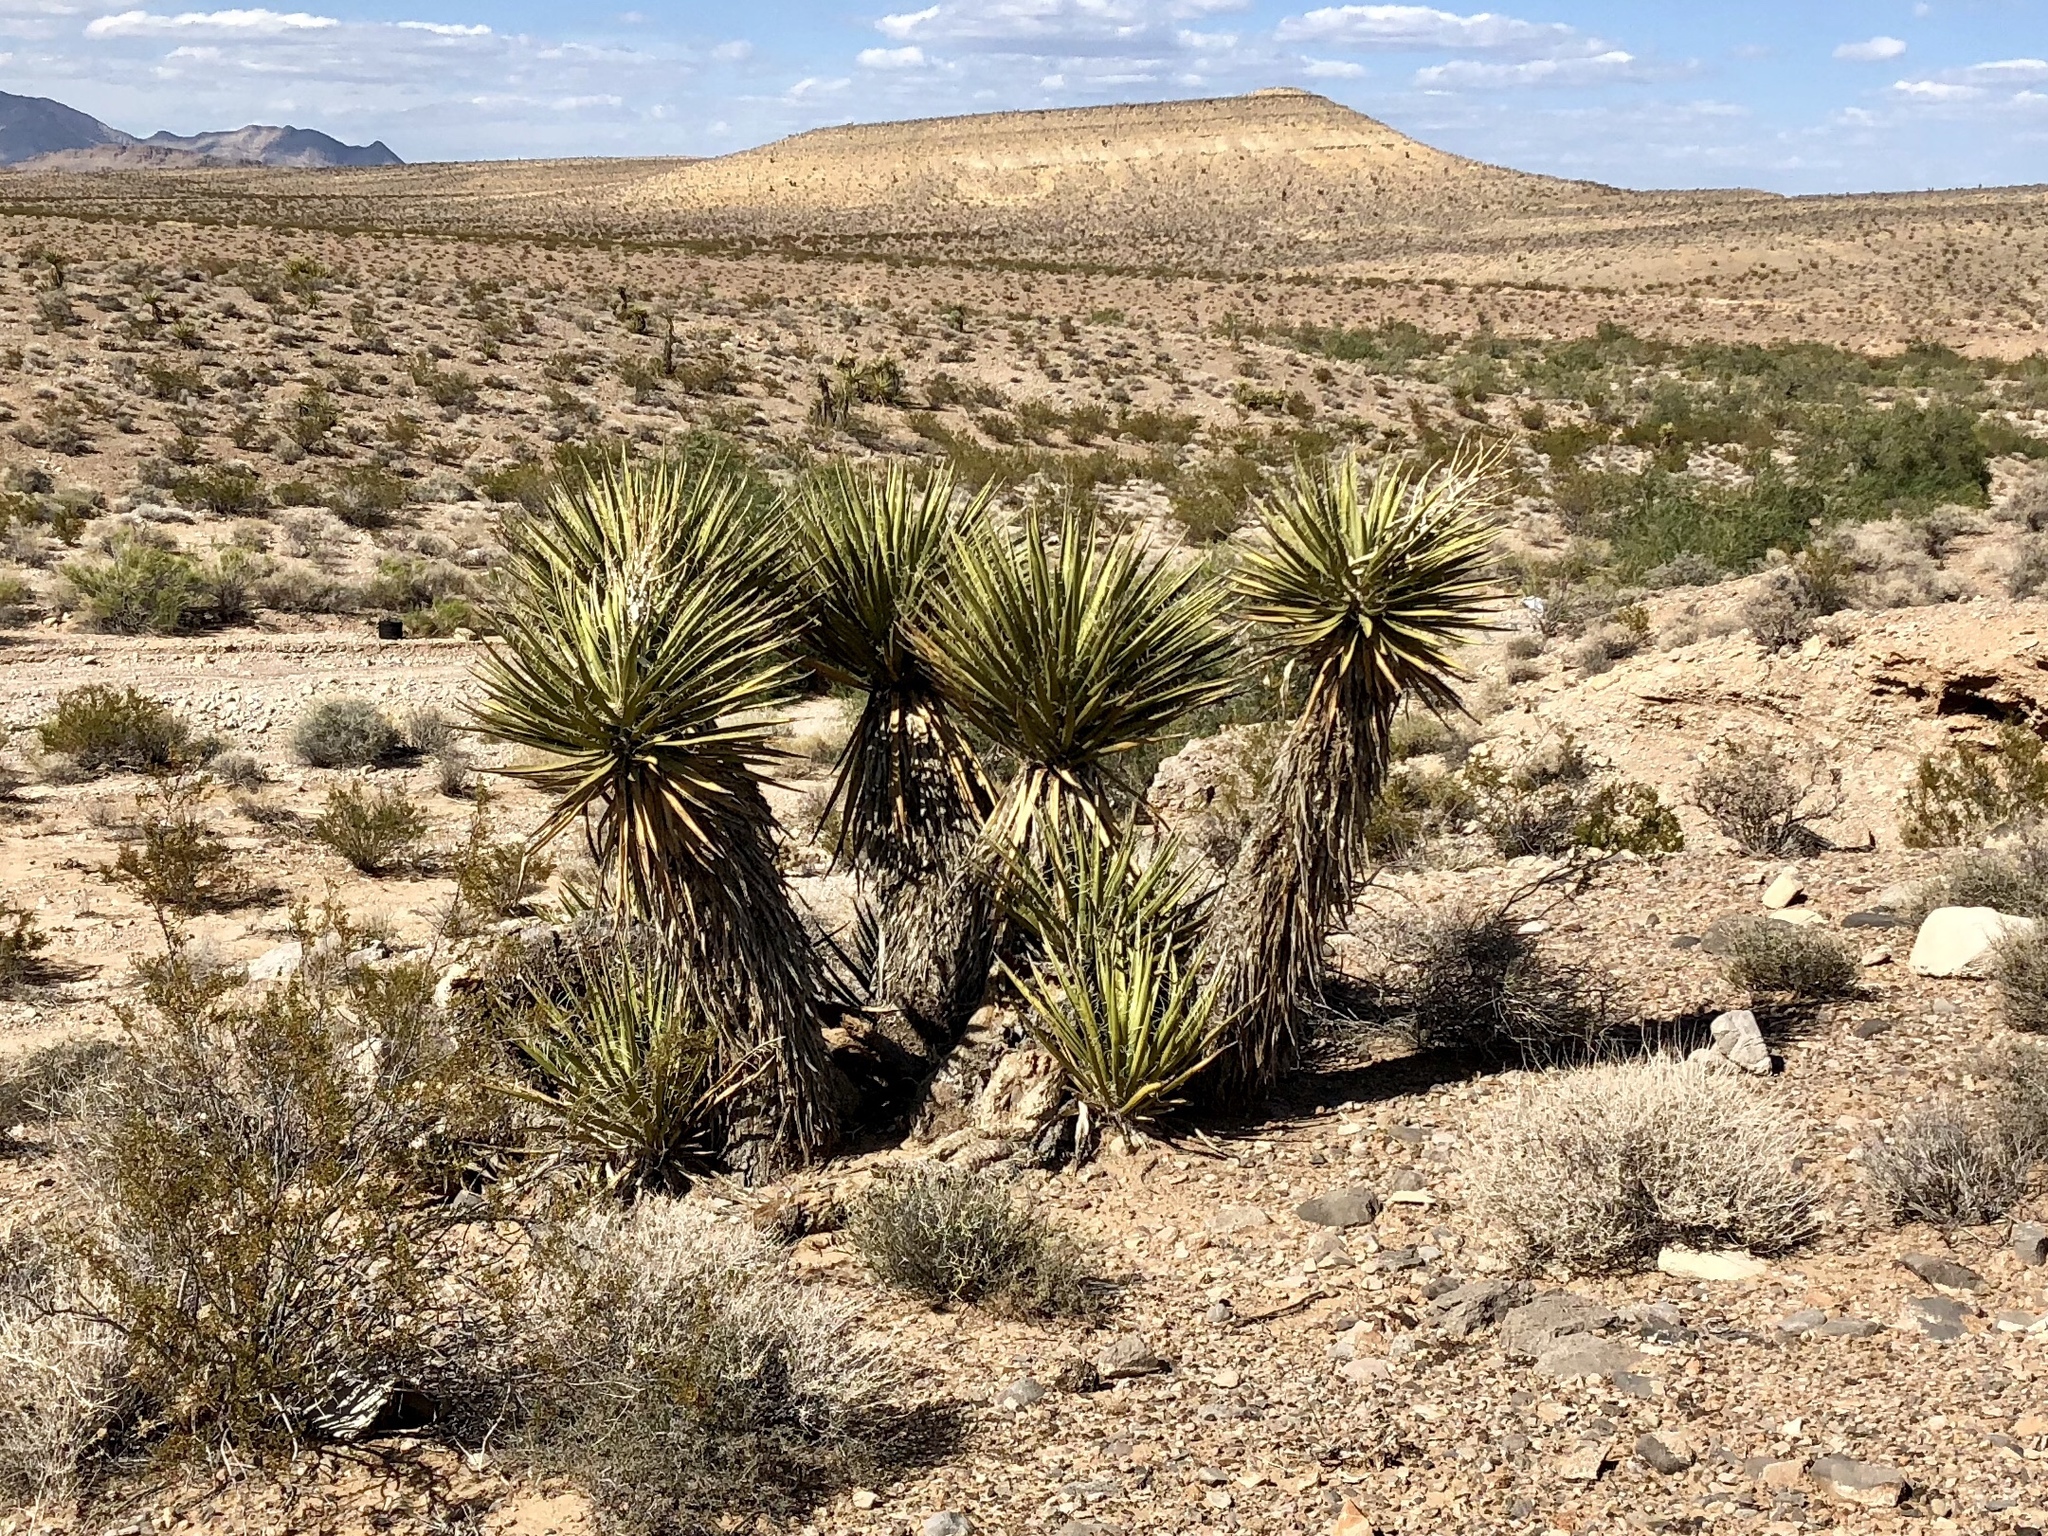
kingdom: Plantae
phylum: Tracheophyta
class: Liliopsida
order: Asparagales
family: Asparagaceae
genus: Yucca
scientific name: Yucca schidigera
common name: Mojave yucca
